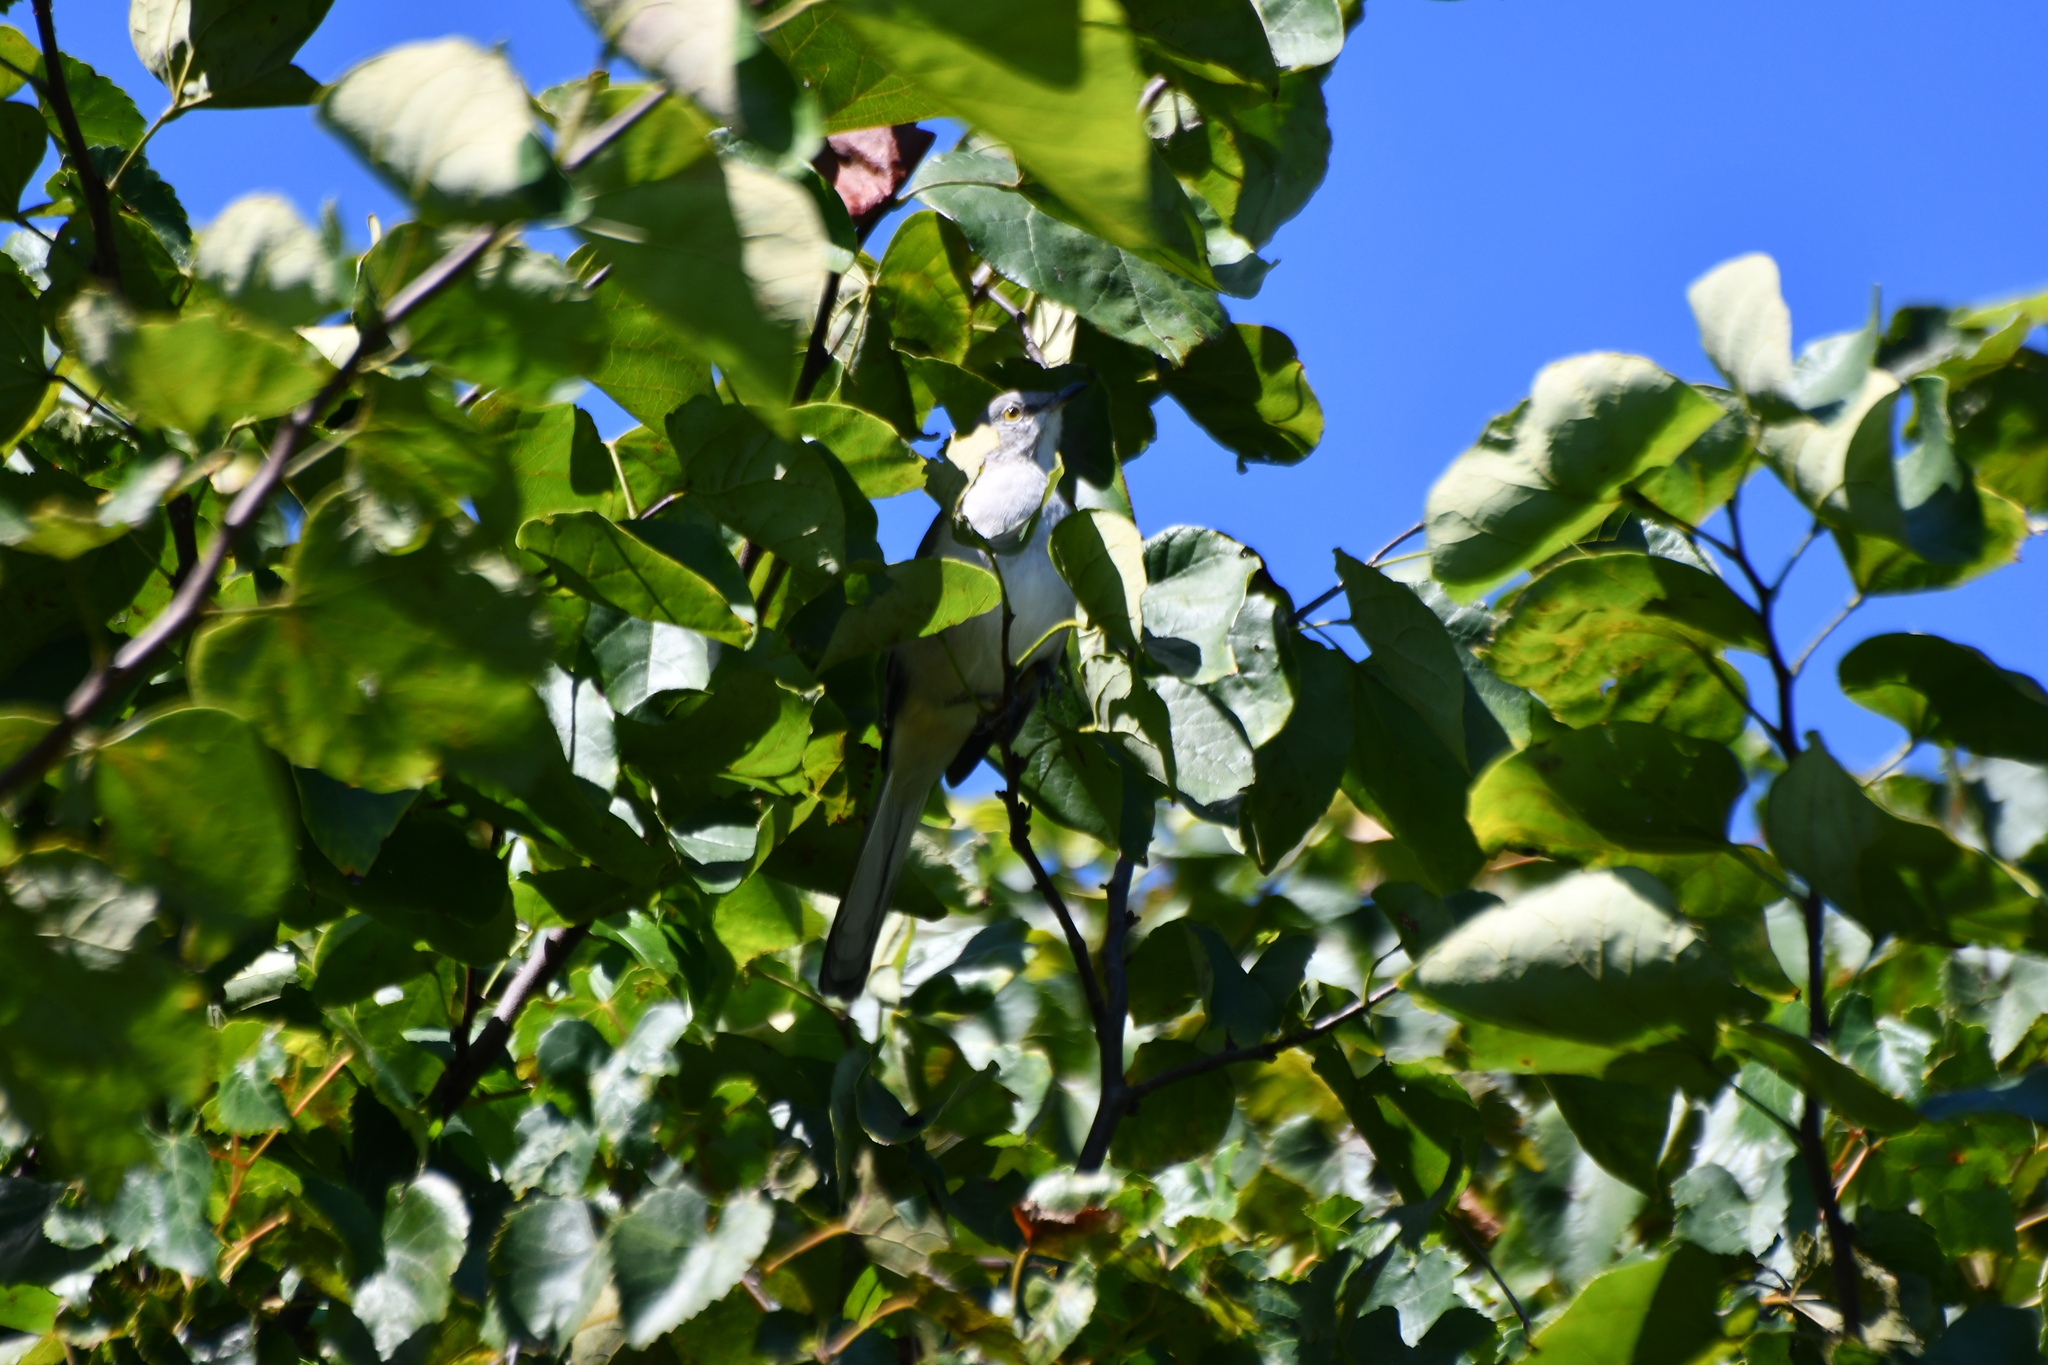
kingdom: Animalia
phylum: Chordata
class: Aves
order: Passeriformes
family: Mimidae
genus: Mimus
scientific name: Mimus polyglottos
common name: Northern mockingbird
